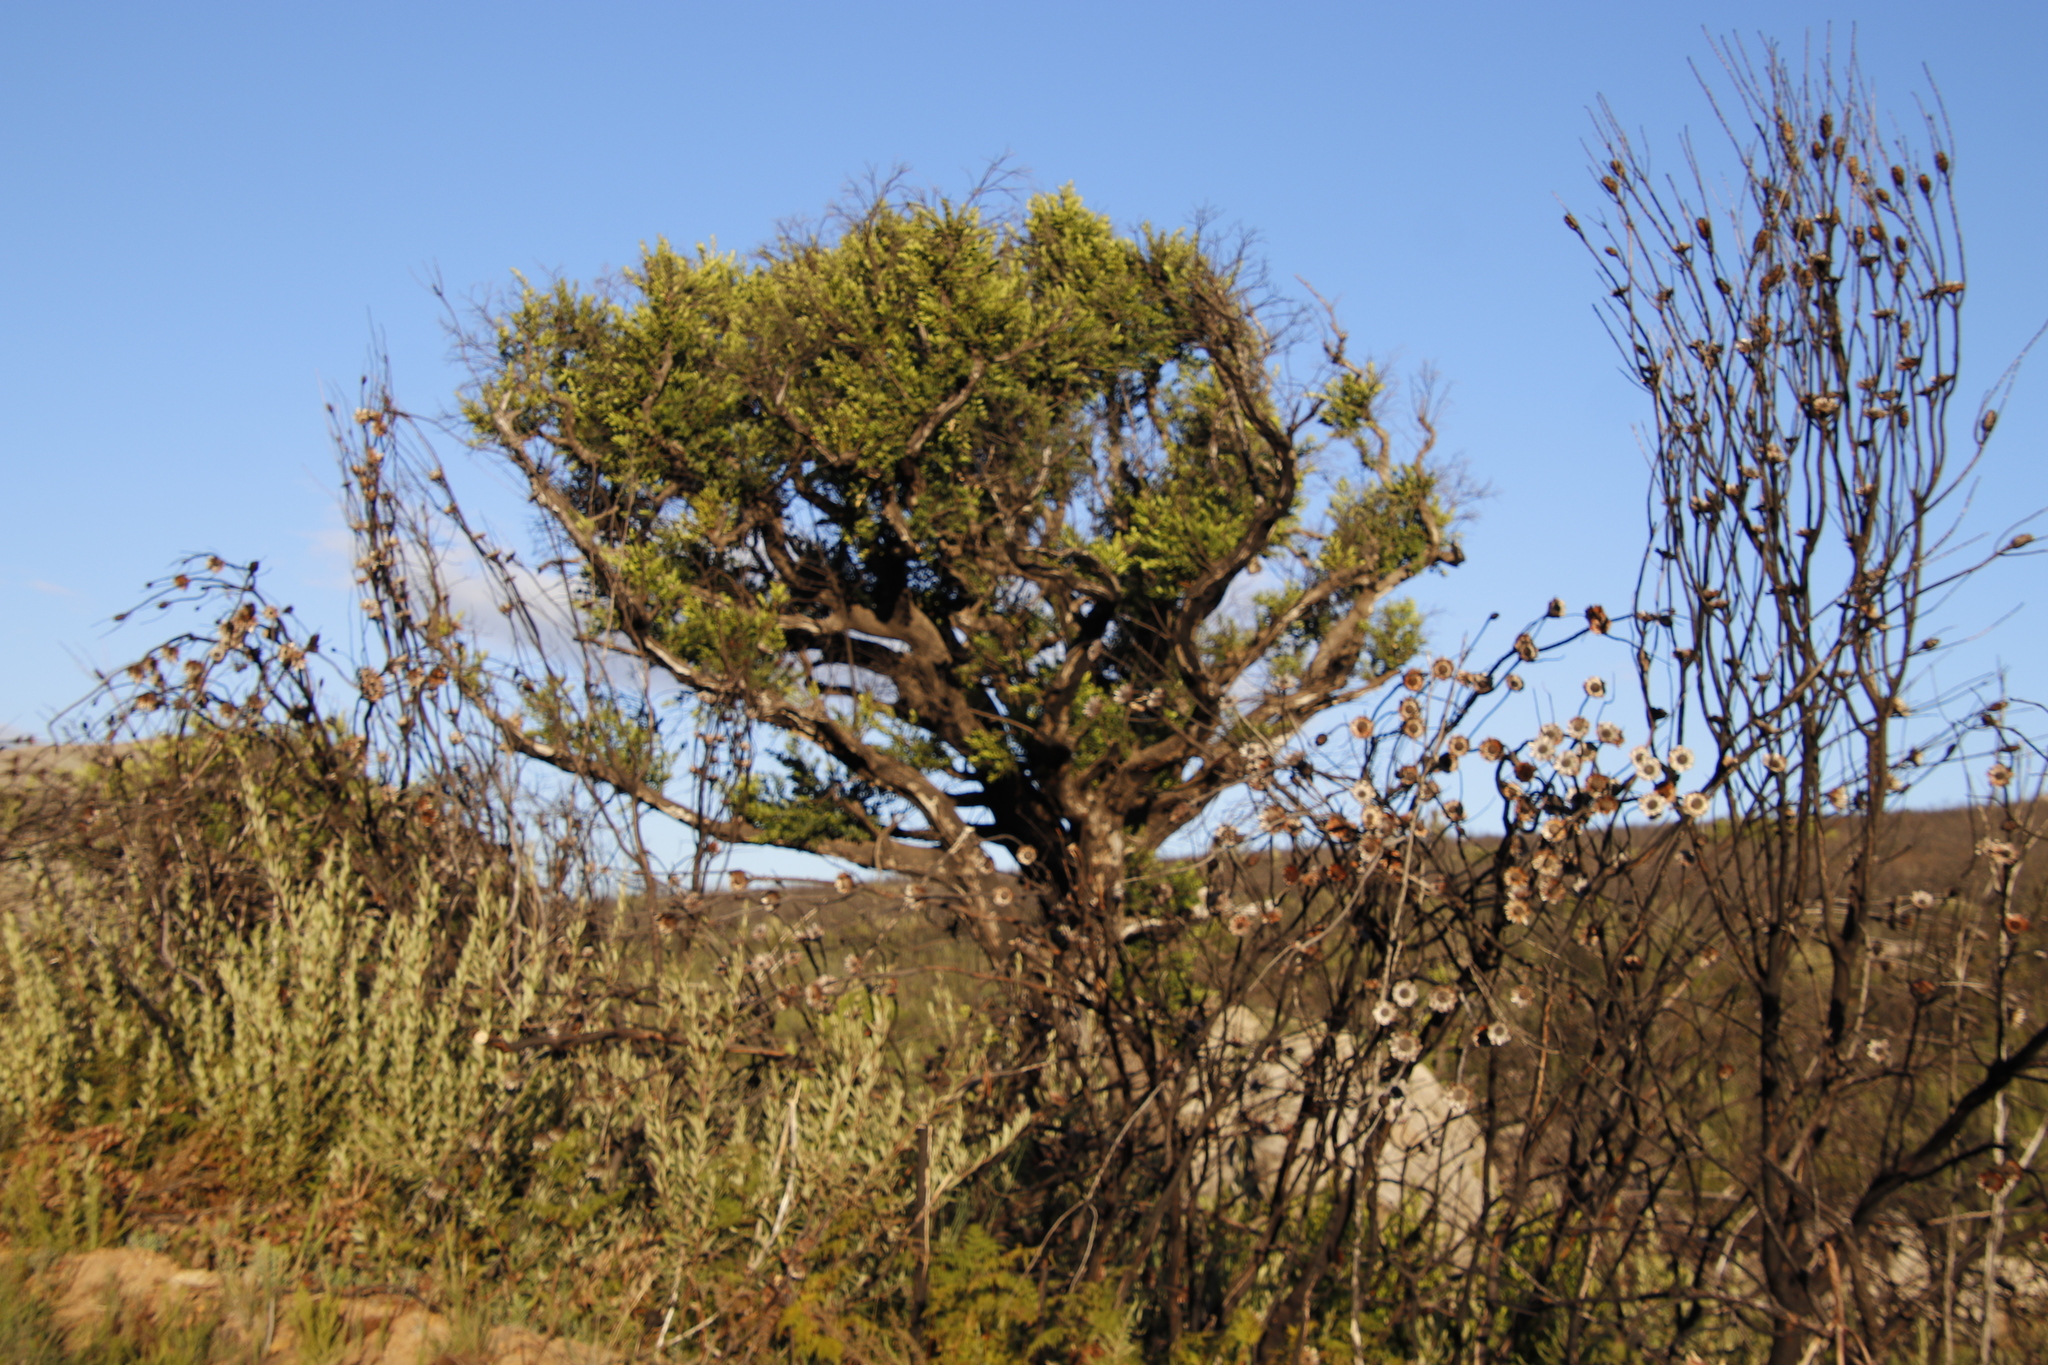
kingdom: Plantae
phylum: Tracheophyta
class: Magnoliopsida
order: Celastrales
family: Celastraceae
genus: Gymnosporia
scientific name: Gymnosporia laurina
